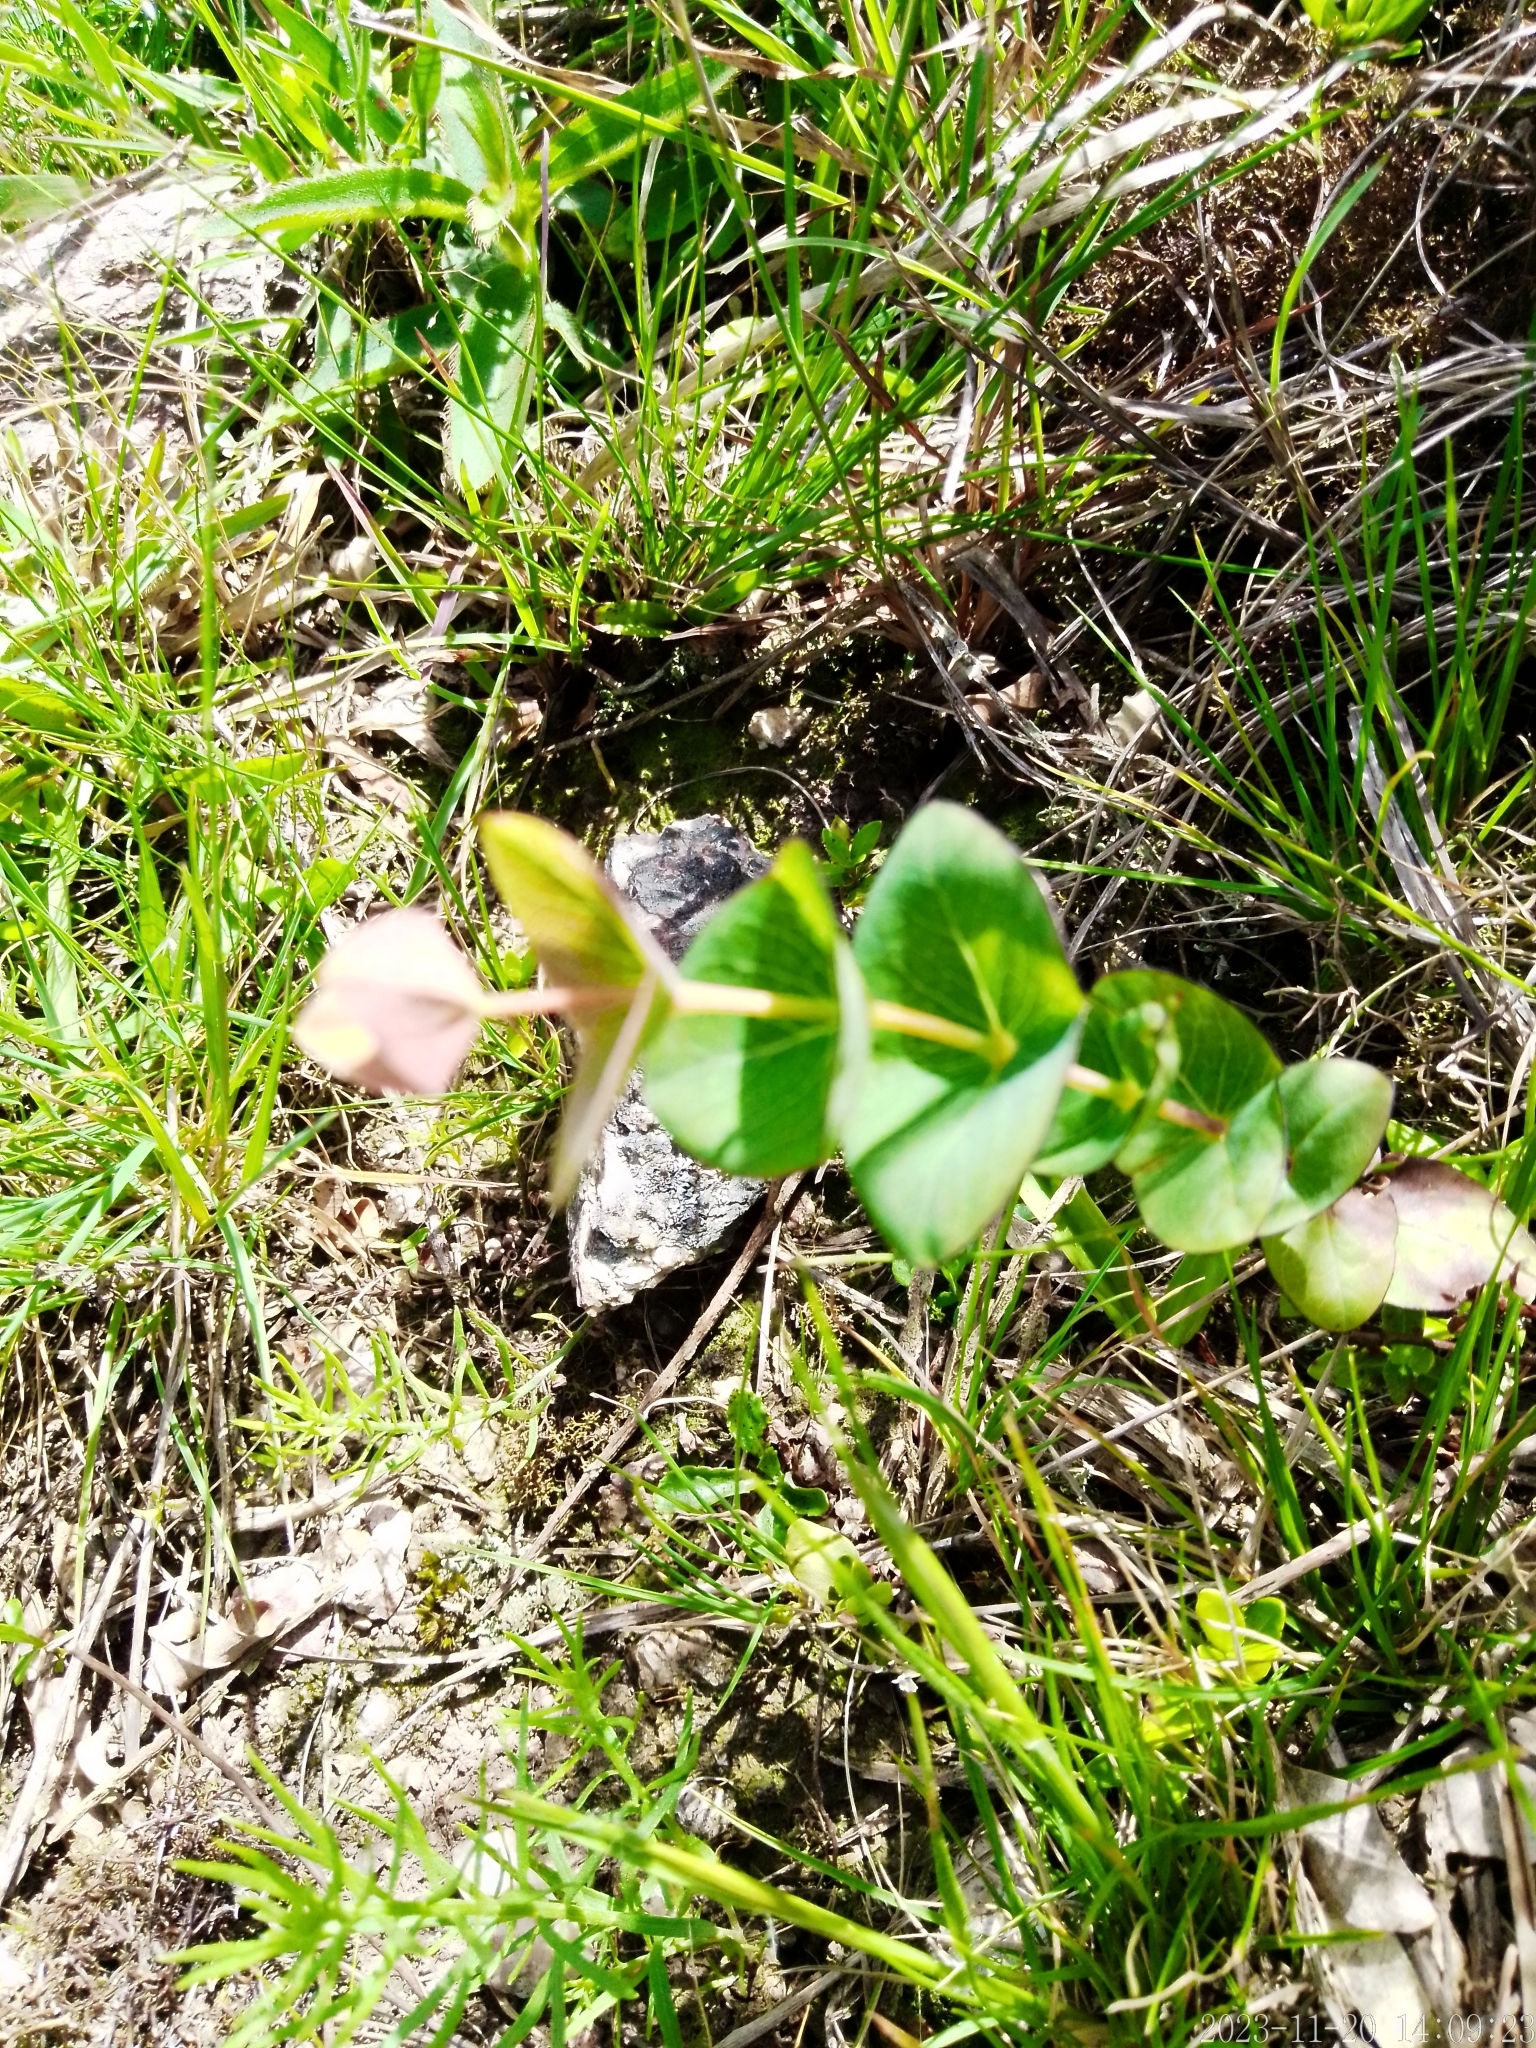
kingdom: Plantae
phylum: Tracheophyta
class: Magnoliopsida
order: Malpighiales
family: Hypericaceae
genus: Hypericum
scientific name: Hypericum connatum
